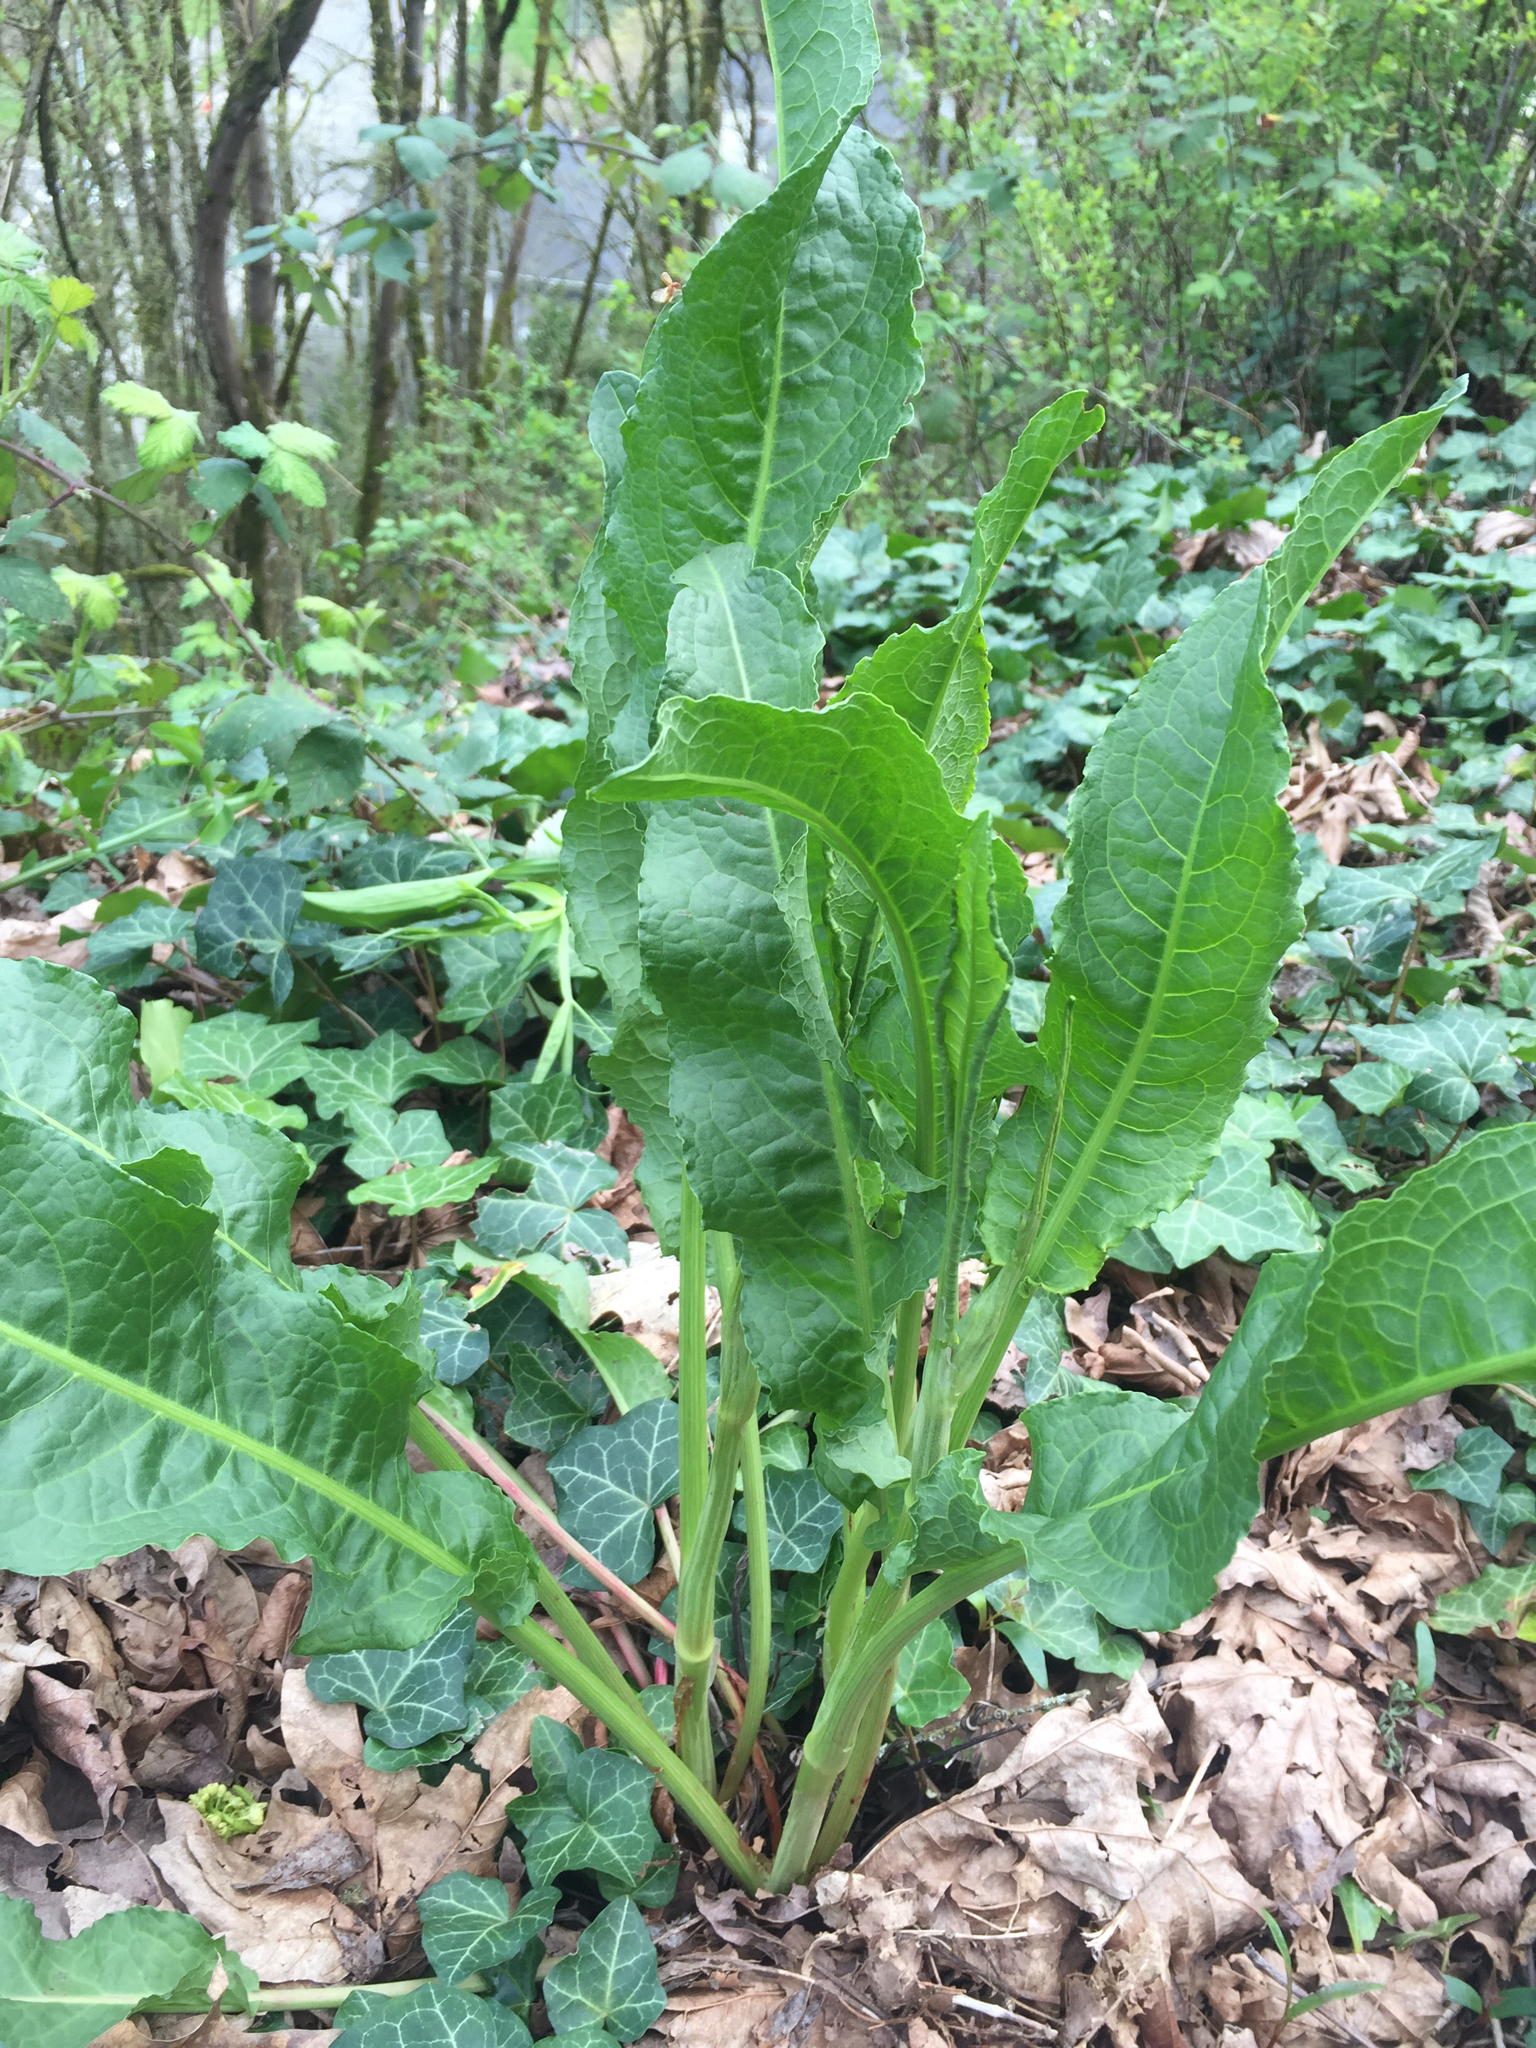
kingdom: Plantae
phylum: Tracheophyta
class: Magnoliopsida
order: Caryophyllales
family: Polygonaceae
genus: Rumex
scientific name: Rumex crispus
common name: Curled dock
